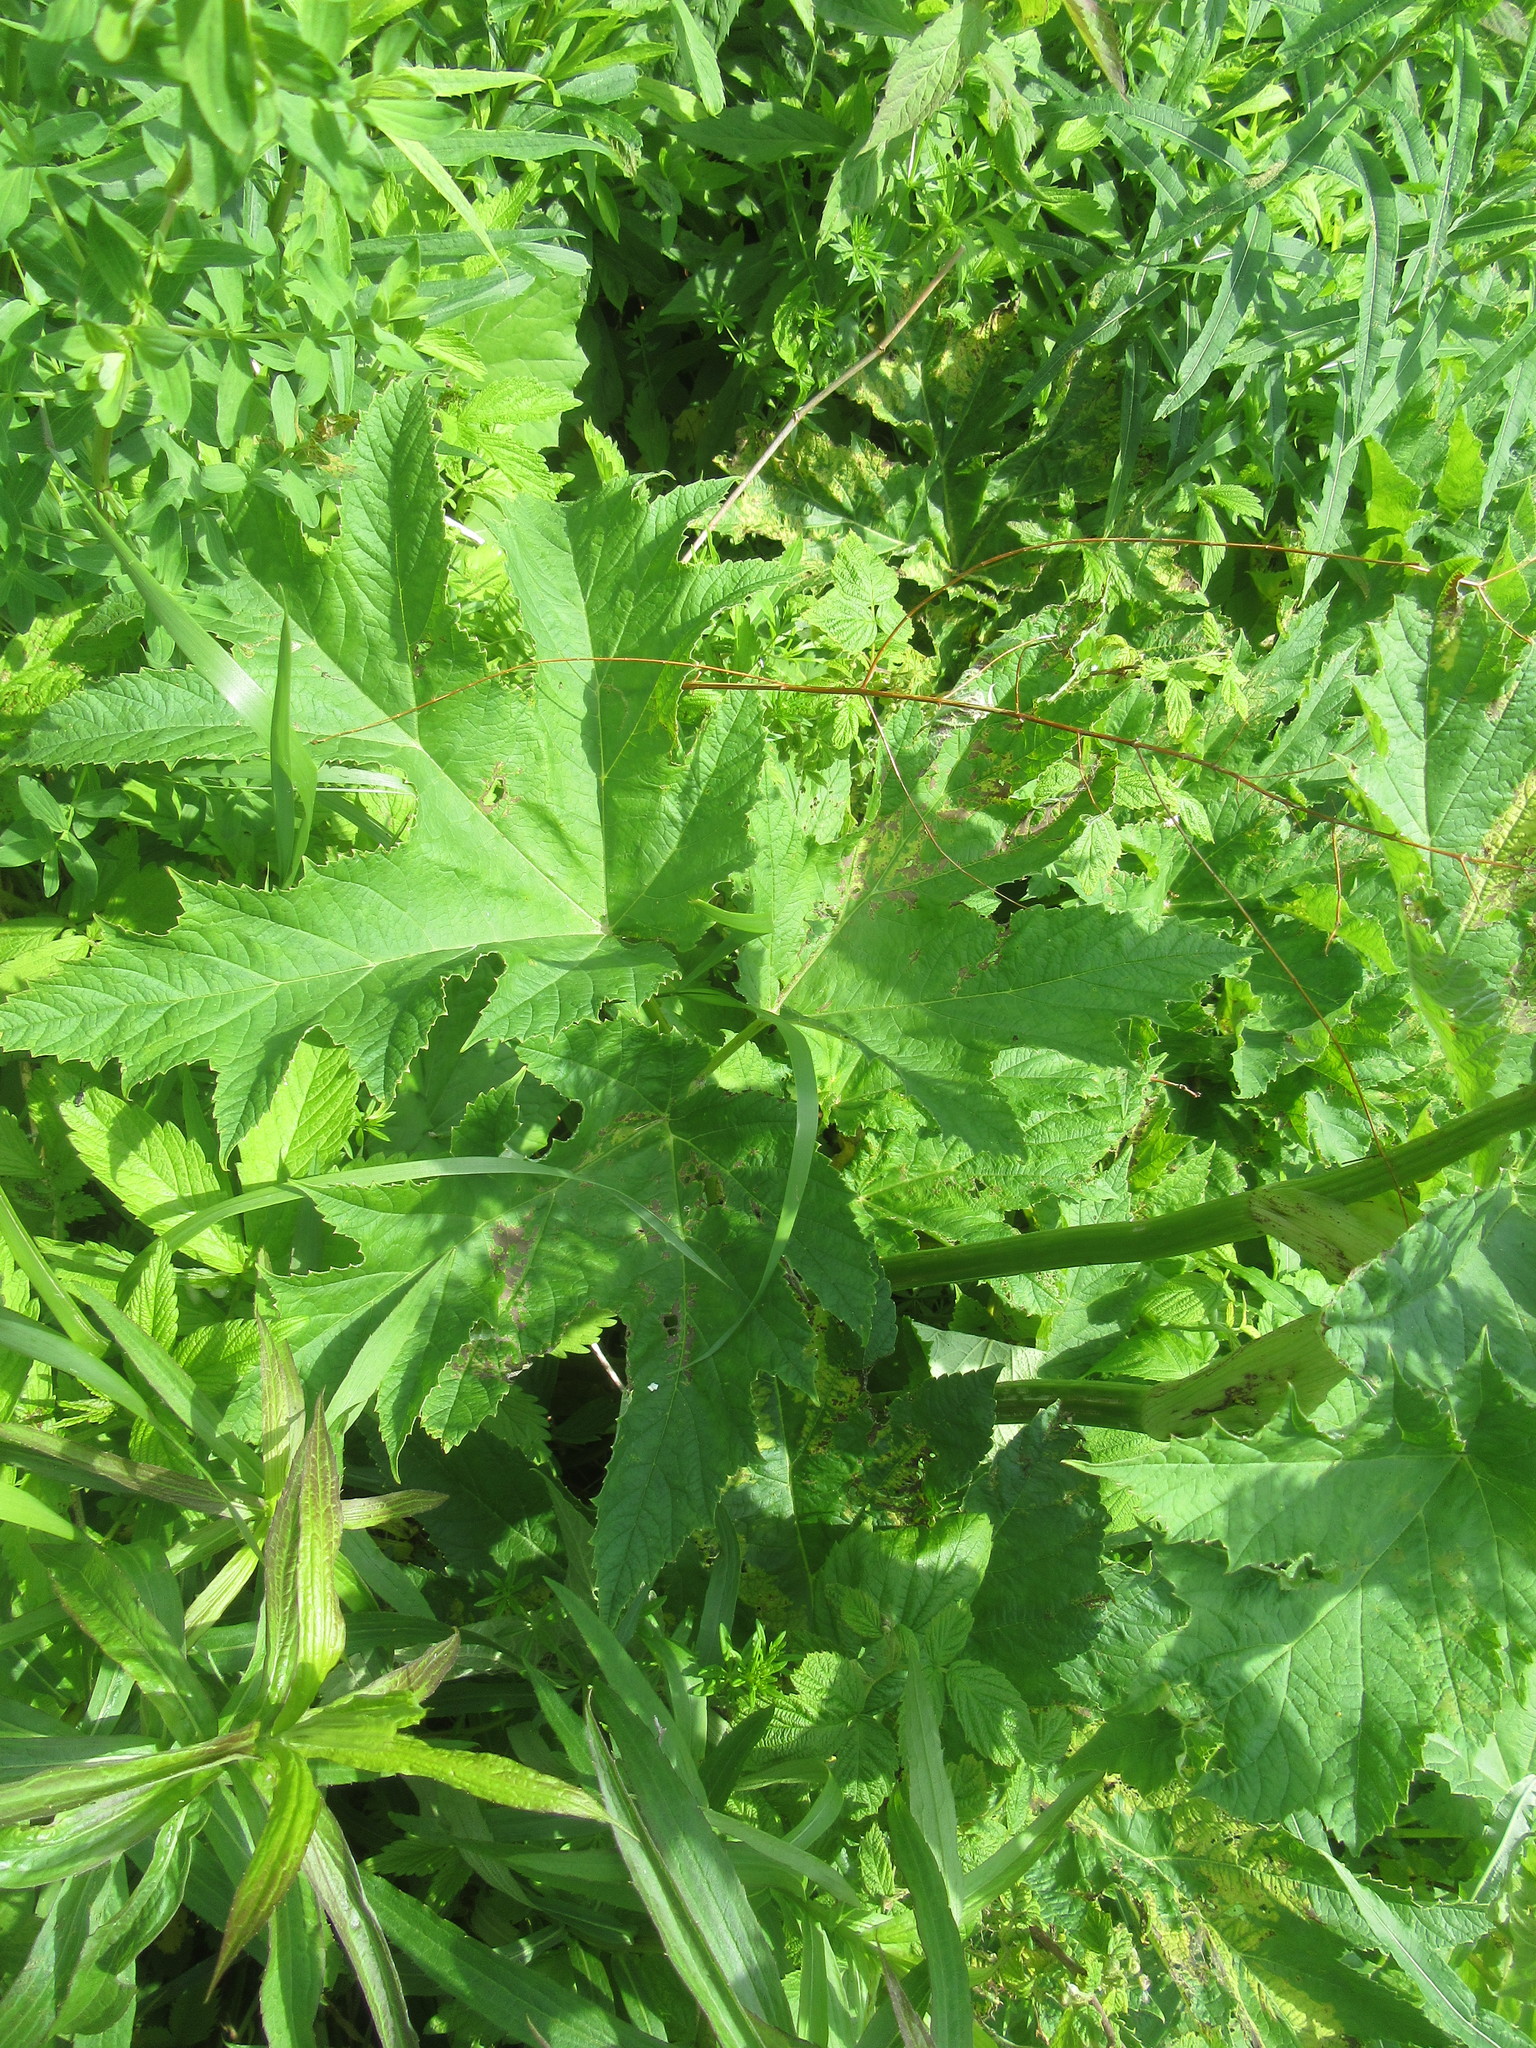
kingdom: Plantae
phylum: Tracheophyta
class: Magnoliopsida
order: Apiales
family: Apiaceae
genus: Heracleum
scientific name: Heracleum maximum
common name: American cow parsnip
